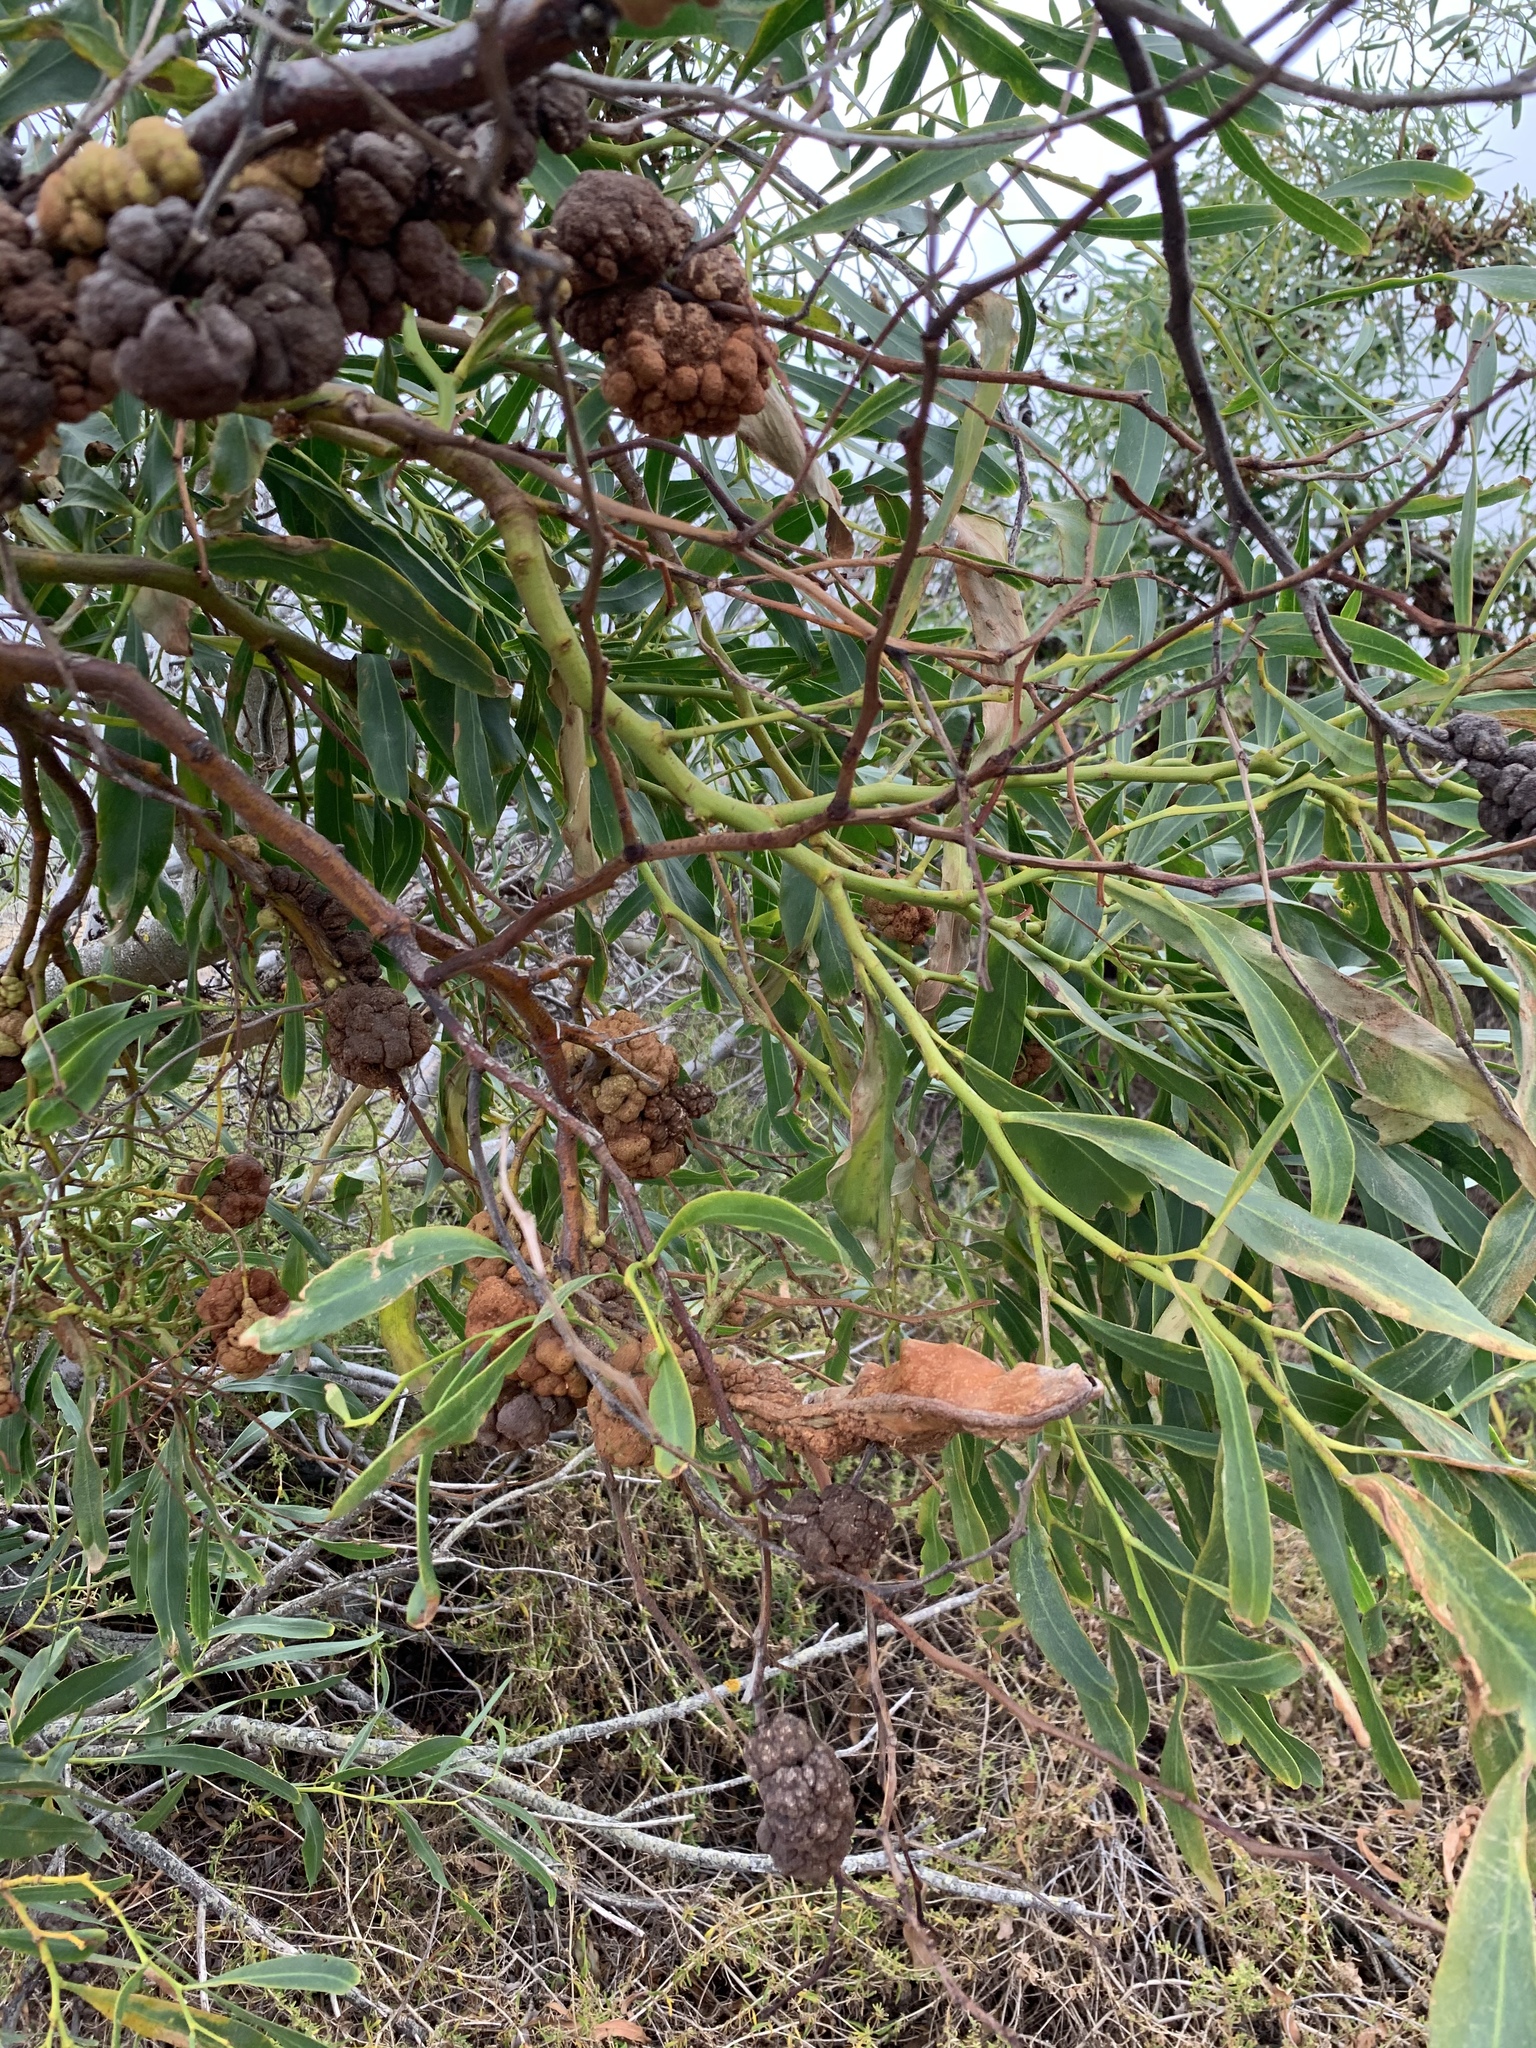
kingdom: Plantae
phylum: Tracheophyta
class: Magnoliopsida
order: Fabales
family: Fabaceae
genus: Acacia
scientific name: Acacia saligna
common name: Orange wattle
